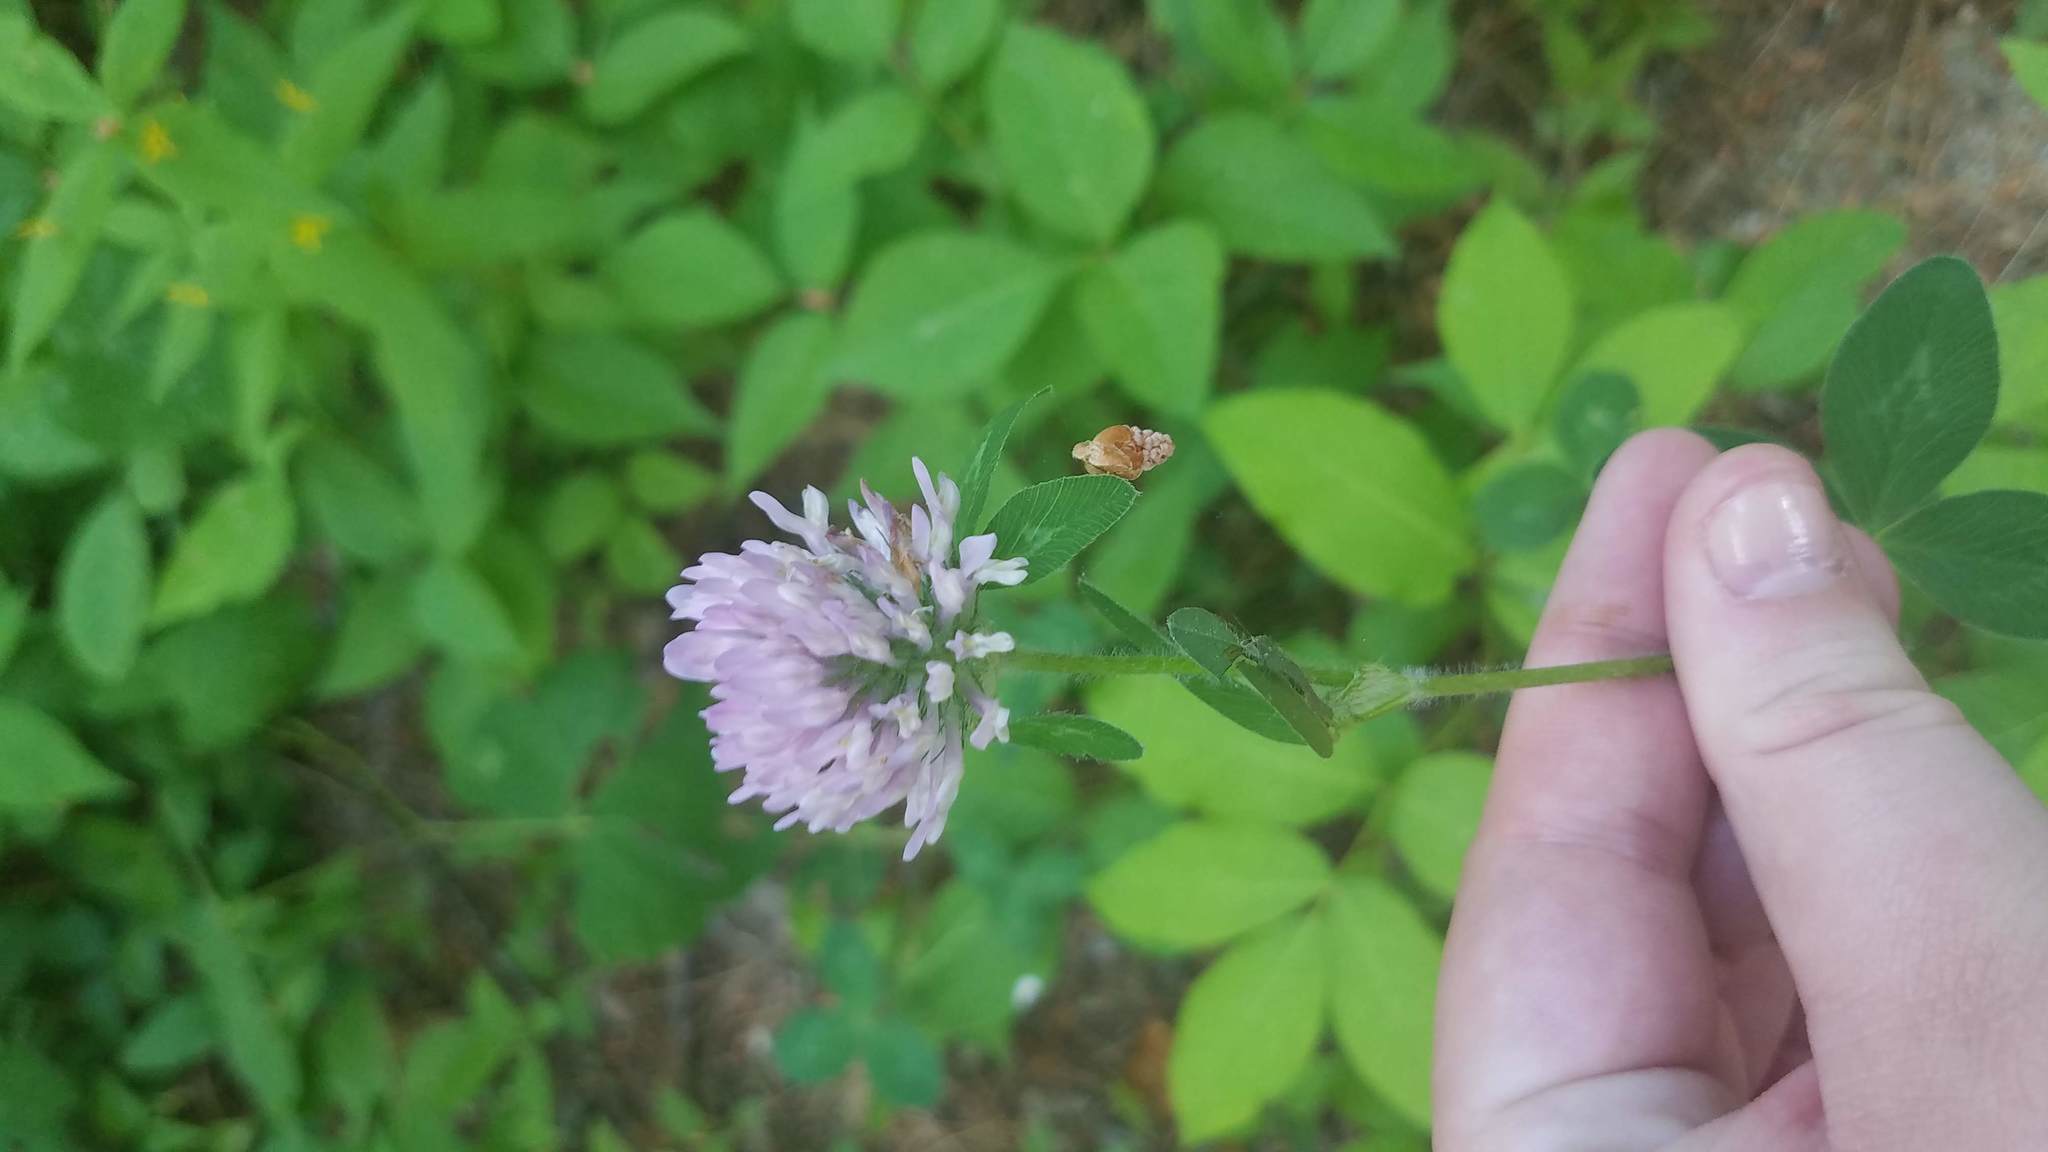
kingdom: Plantae
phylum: Tracheophyta
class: Magnoliopsida
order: Fabales
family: Fabaceae
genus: Trifolium
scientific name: Trifolium pratense
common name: Red clover
